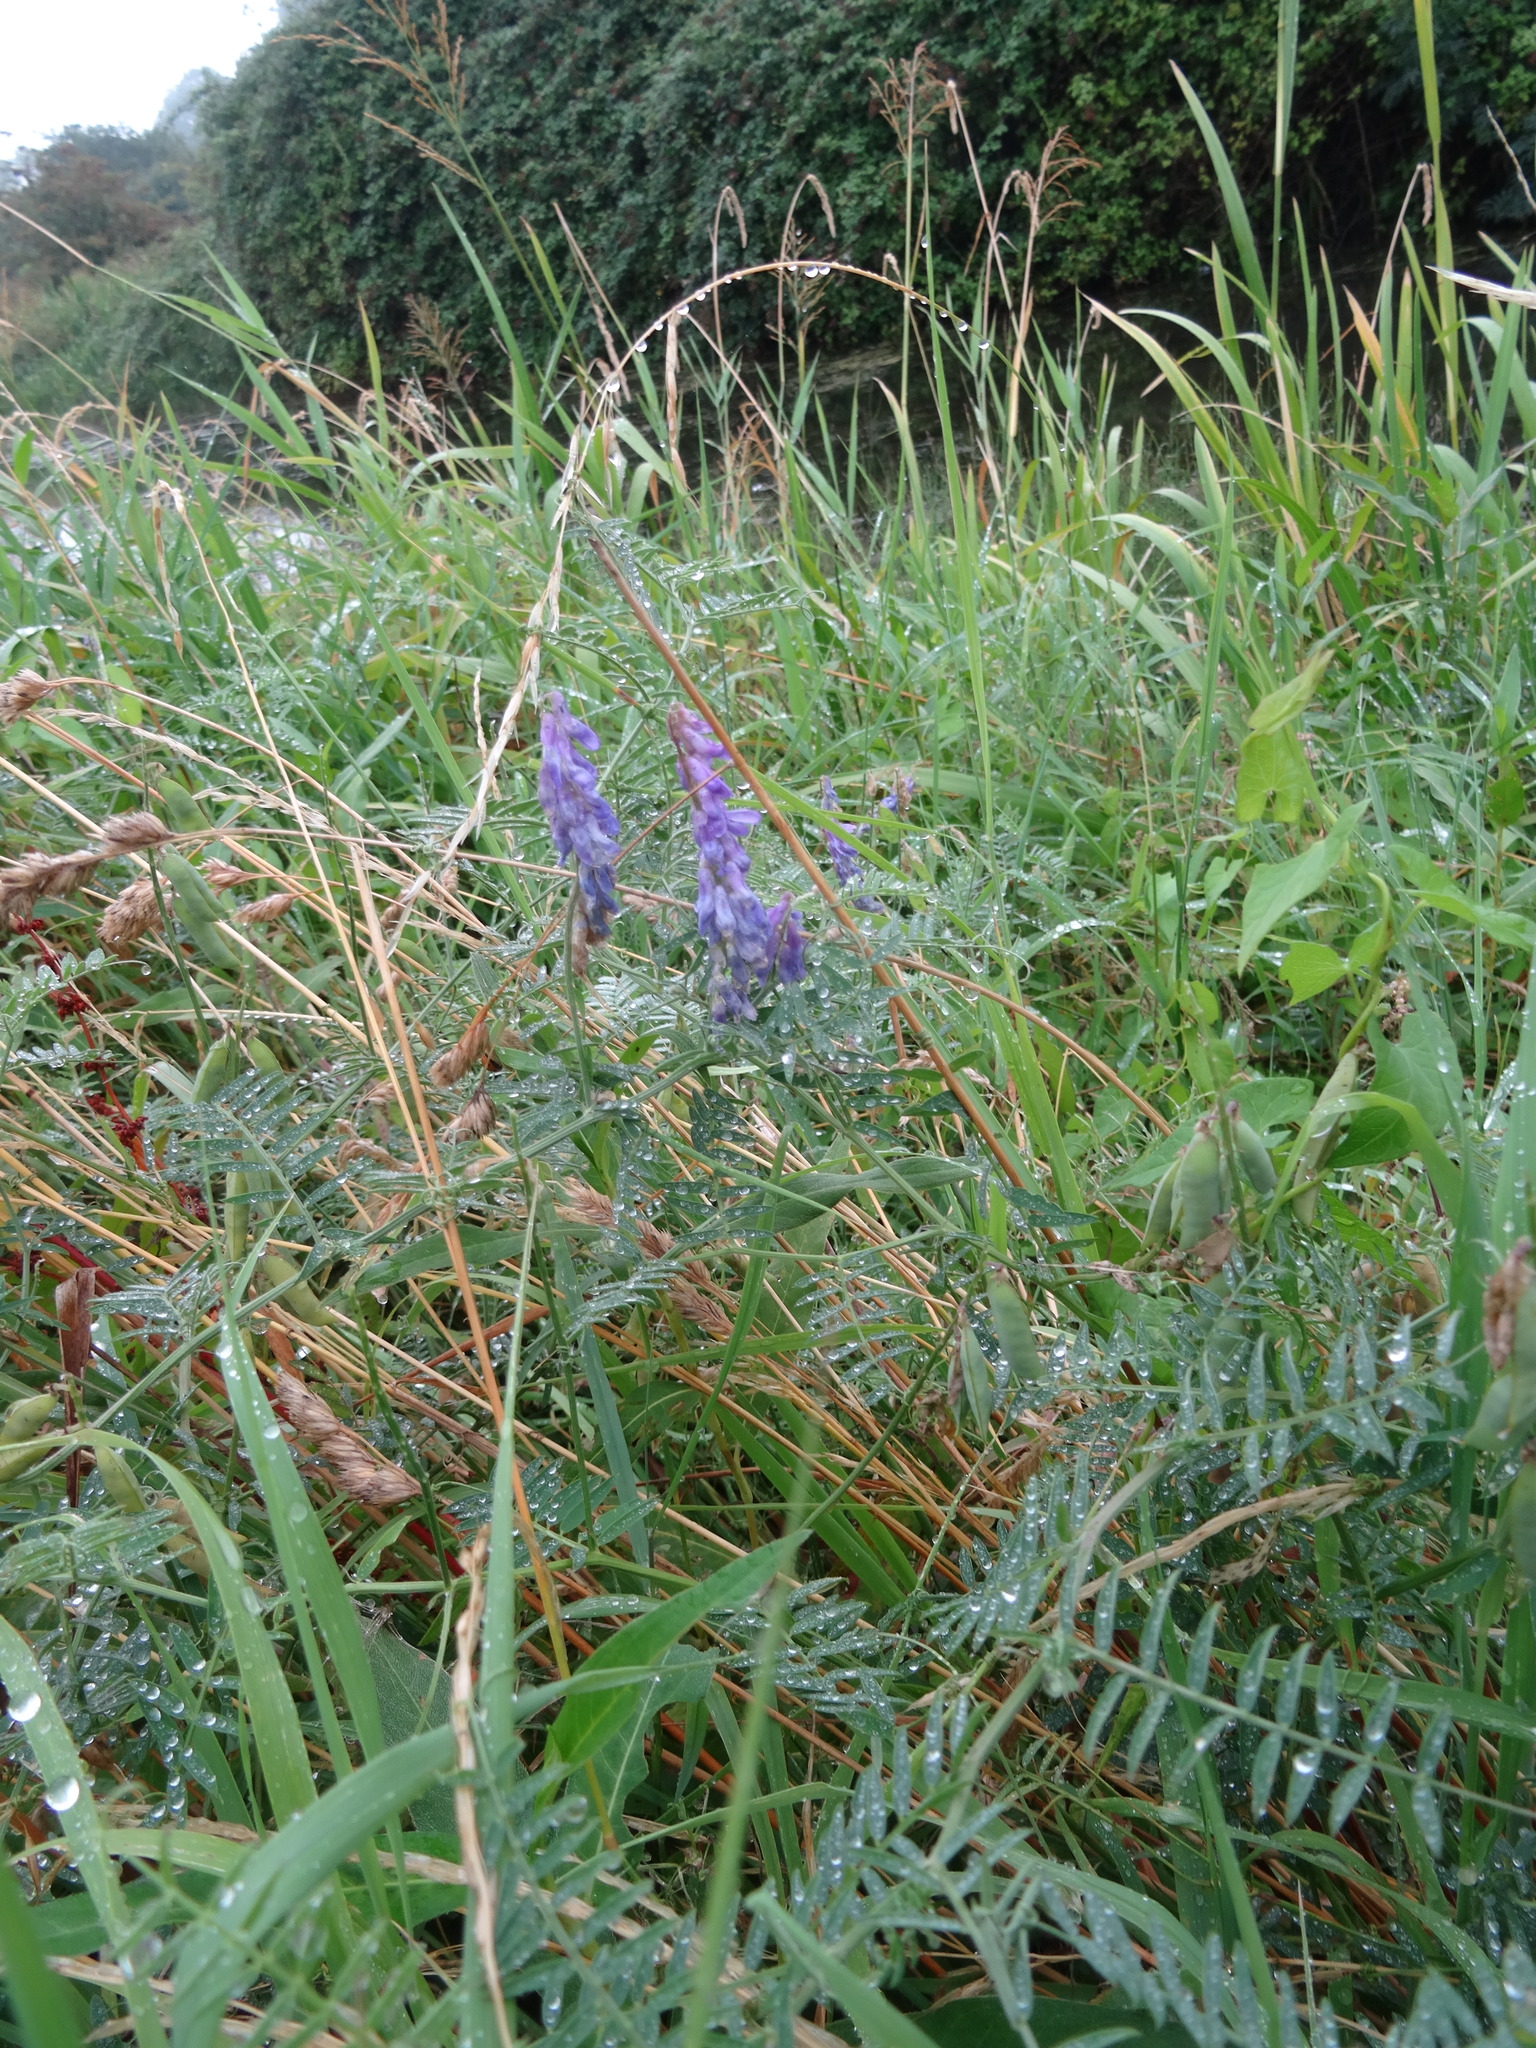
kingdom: Plantae
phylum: Tracheophyta
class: Magnoliopsida
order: Fabales
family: Fabaceae
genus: Vicia
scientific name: Vicia cracca
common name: Bird vetch
